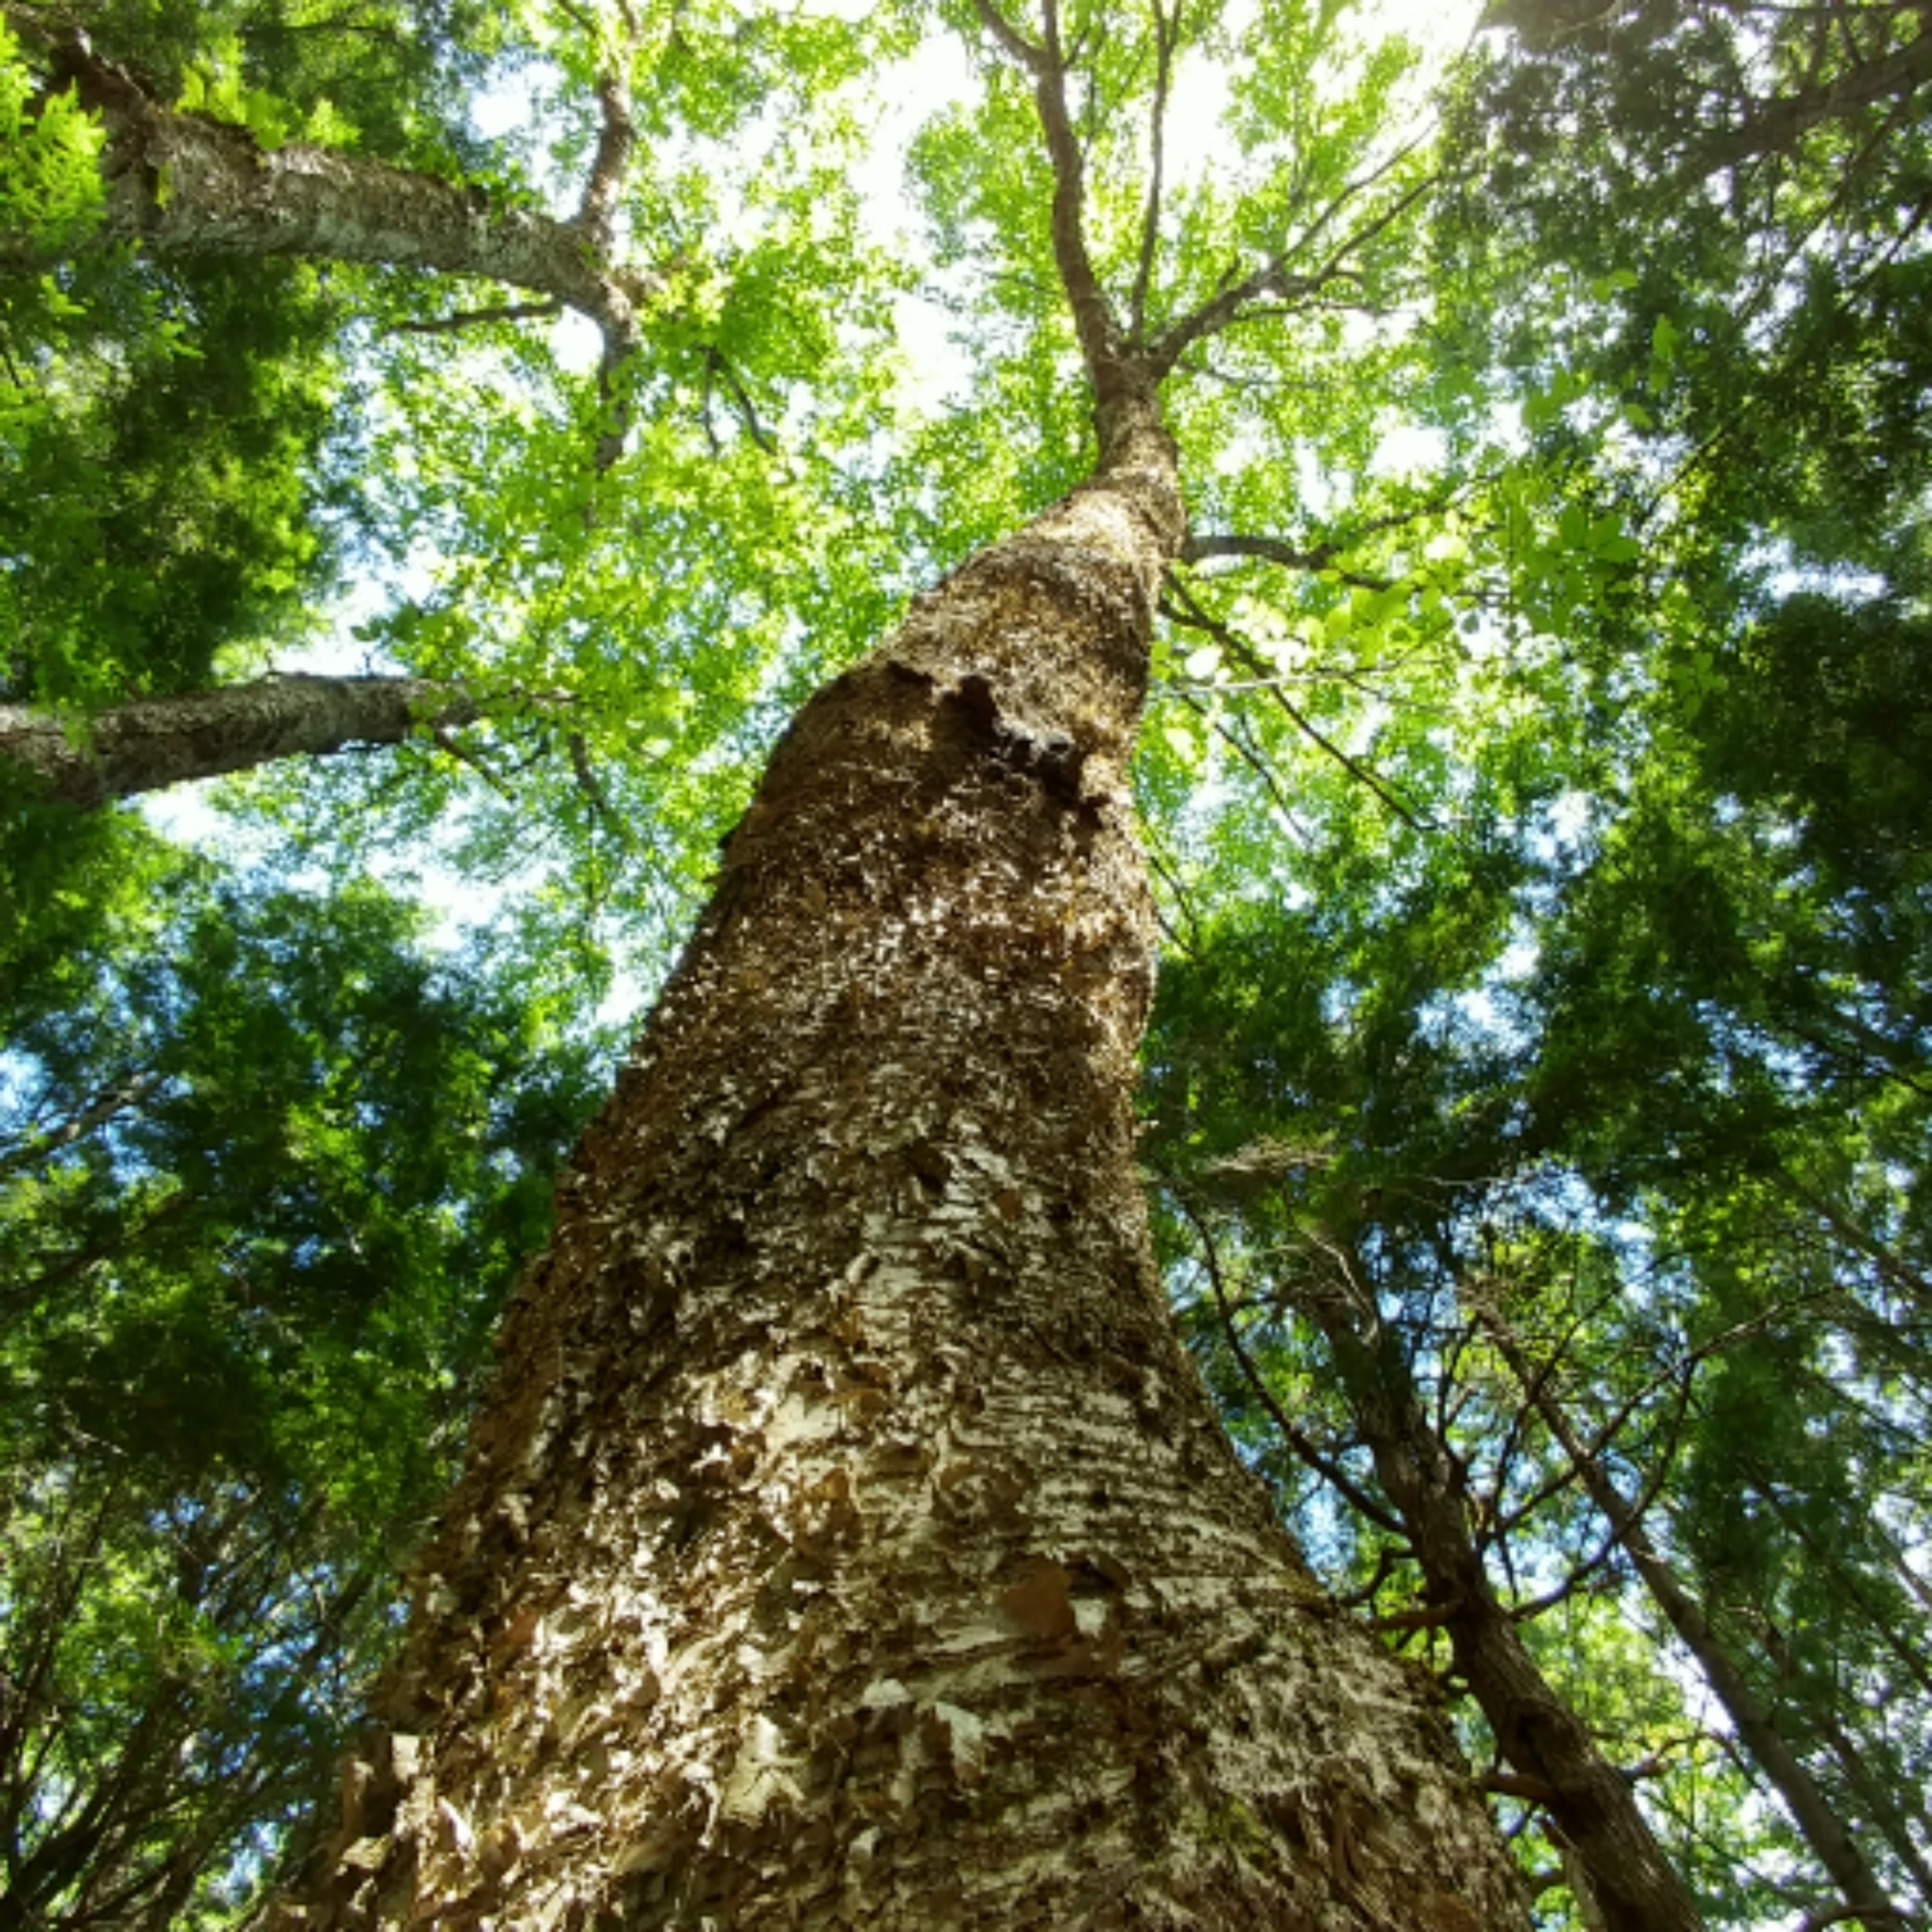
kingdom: Plantae
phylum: Tracheophyta
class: Magnoliopsida
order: Fagales
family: Betulaceae
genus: Betula
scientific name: Betula alleghaniensis
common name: Yellow birch
